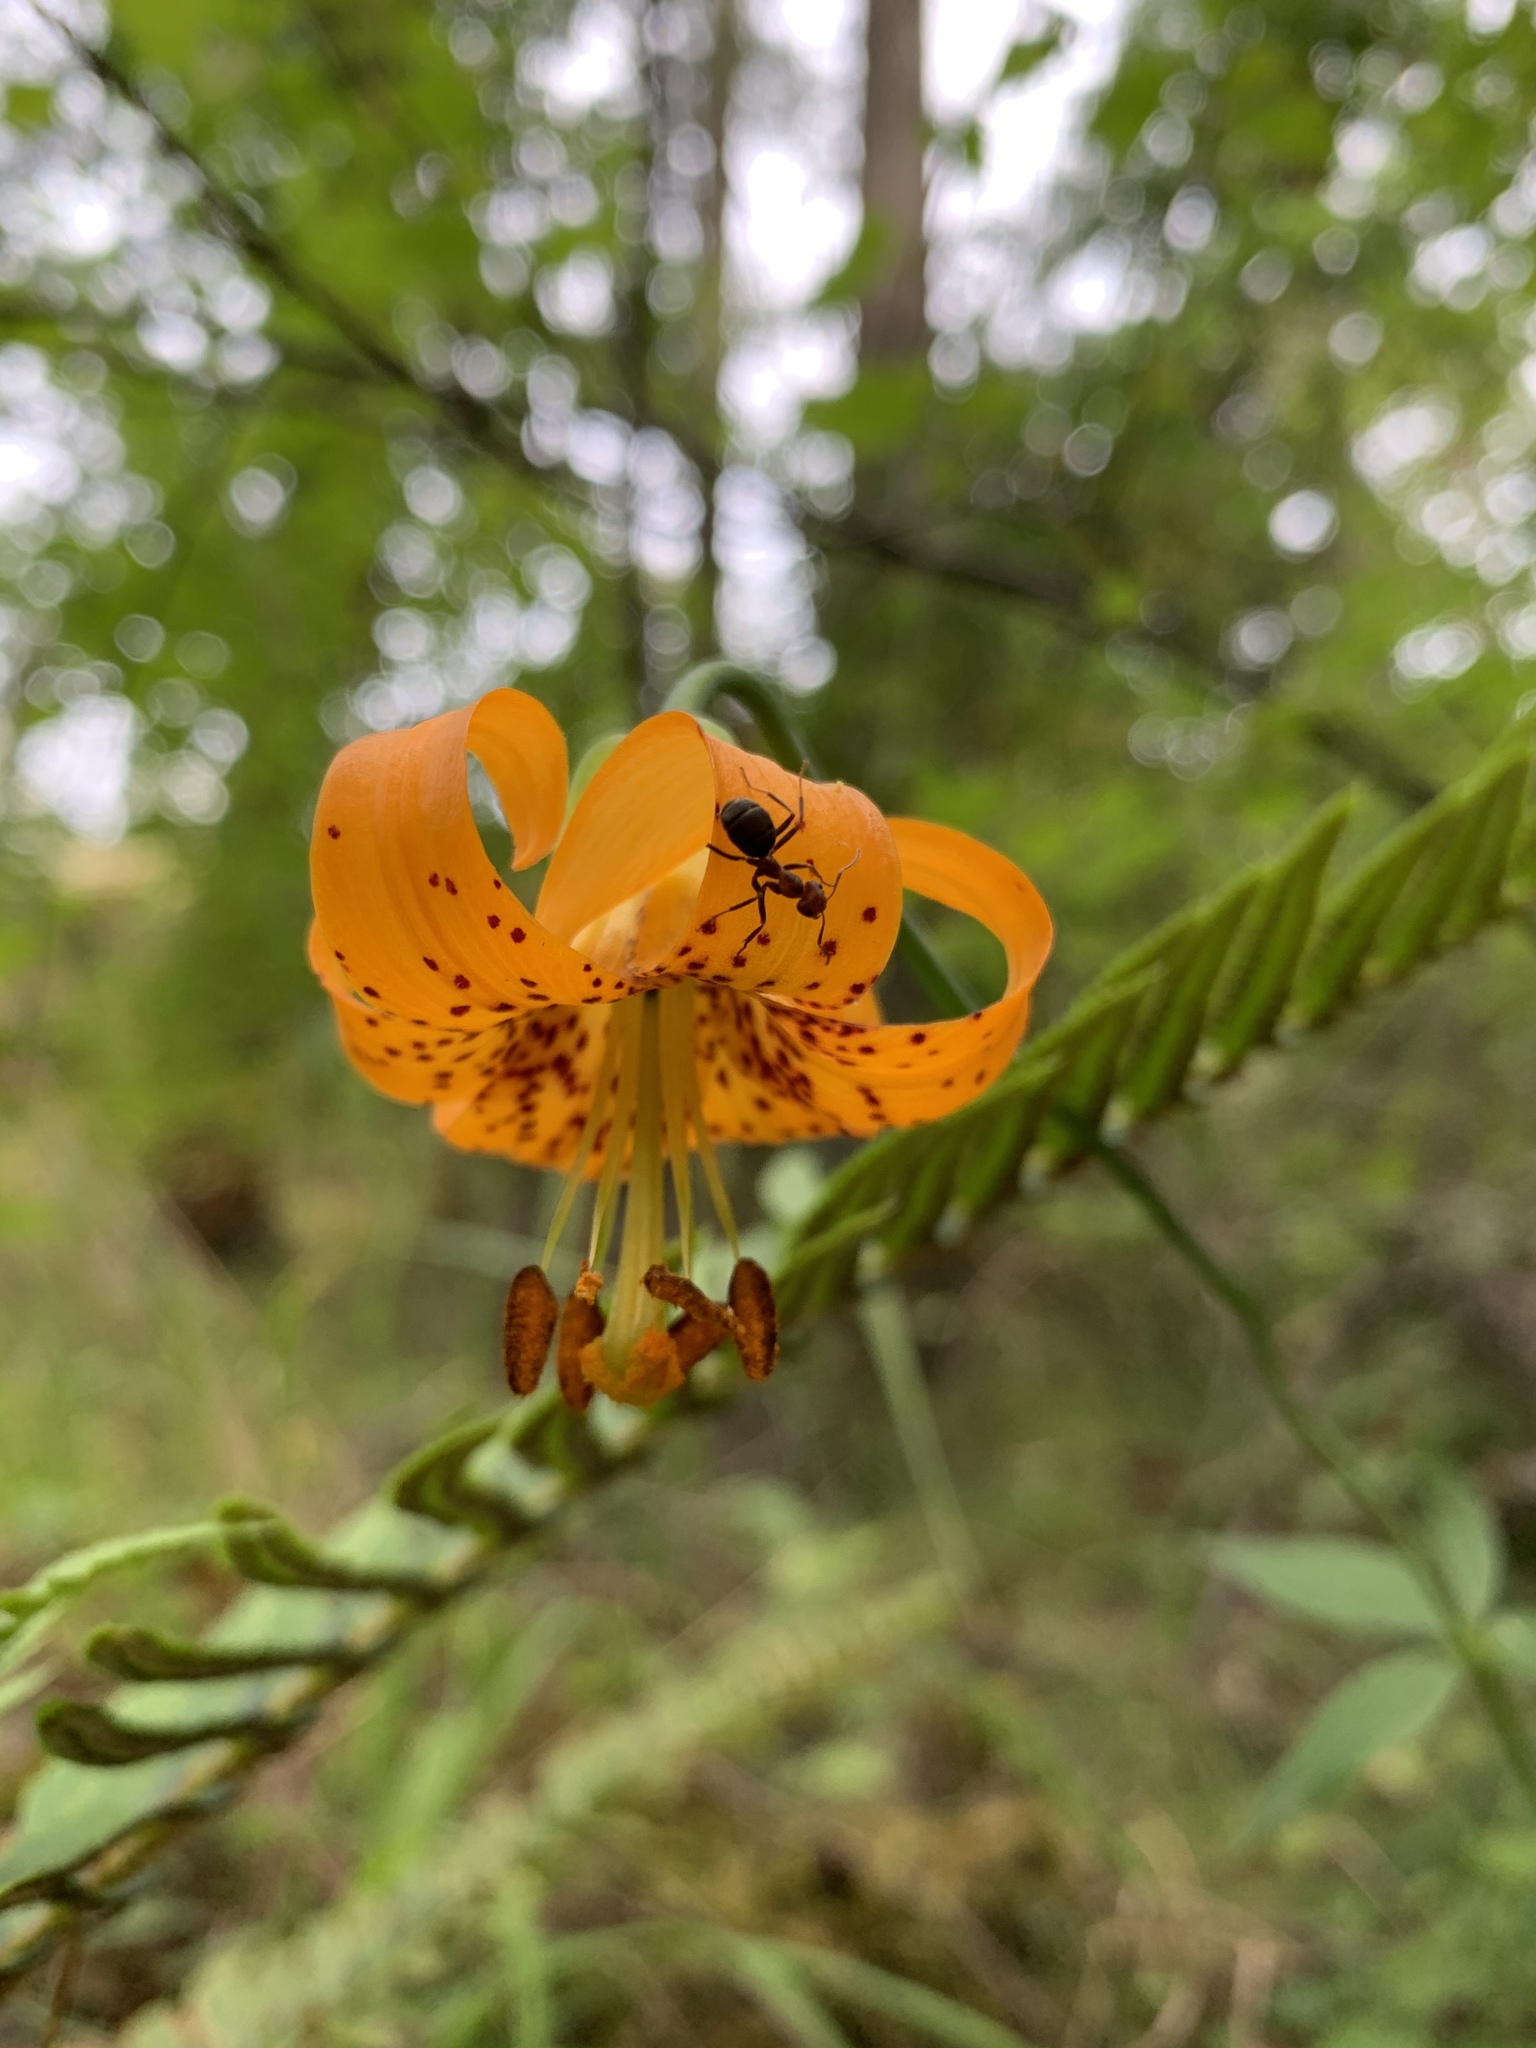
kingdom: Plantae
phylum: Tracheophyta
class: Liliopsida
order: Liliales
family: Liliaceae
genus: Lilium
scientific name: Lilium columbianum
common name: Columbia lily
